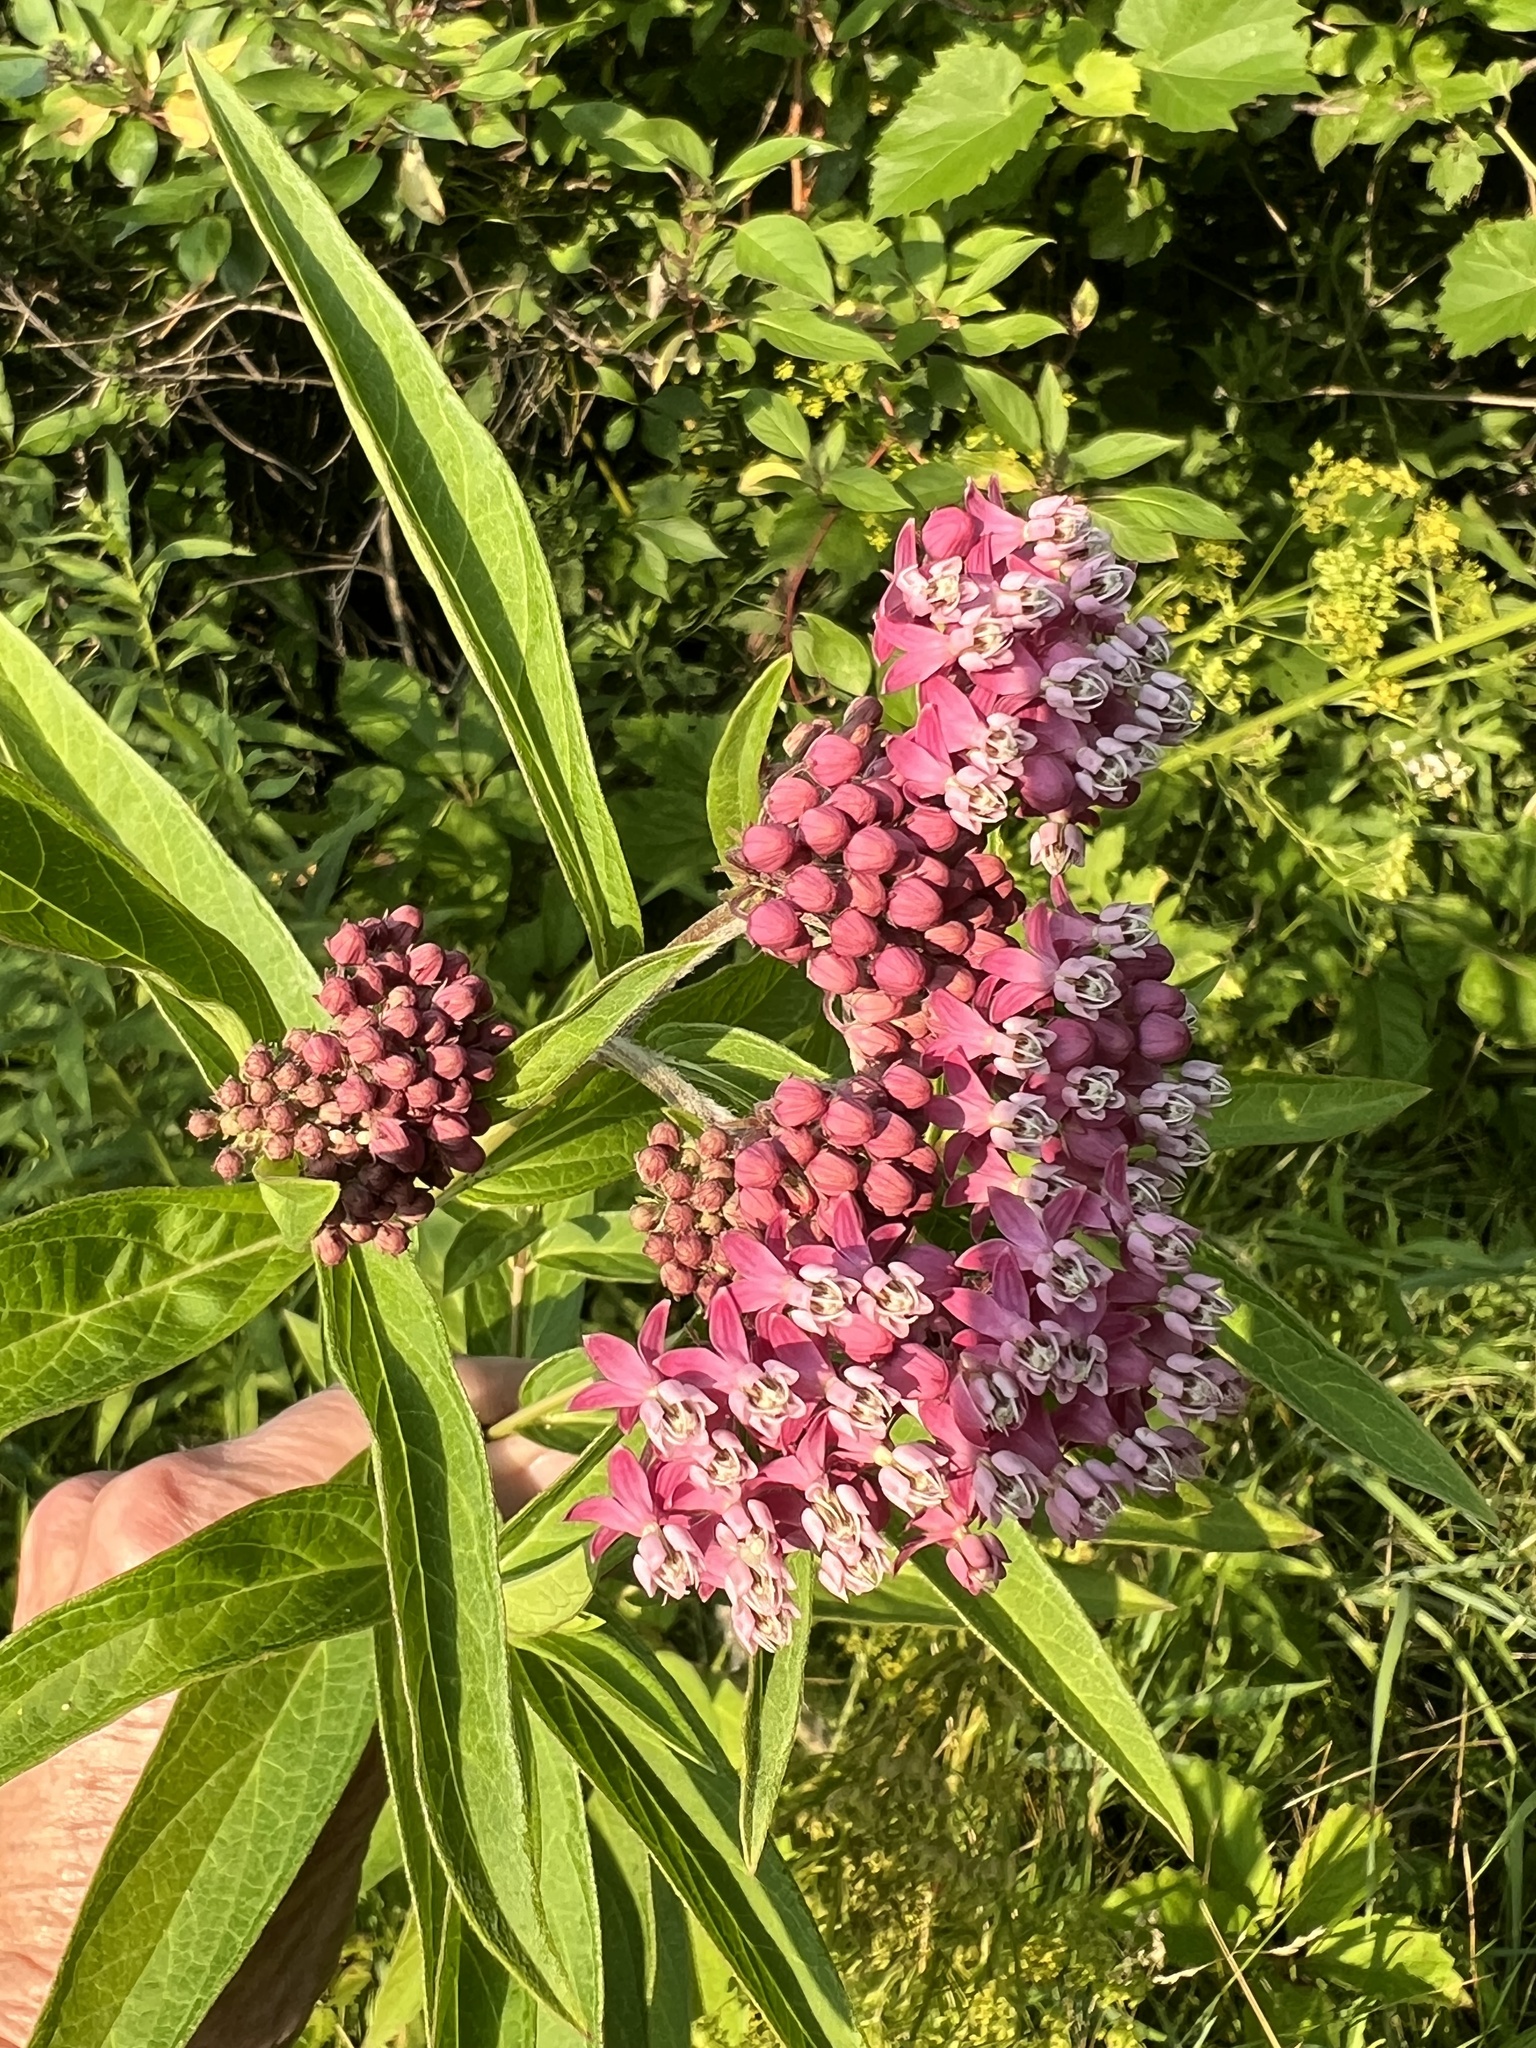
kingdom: Plantae
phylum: Tracheophyta
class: Magnoliopsida
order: Gentianales
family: Apocynaceae
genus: Asclepias
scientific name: Asclepias incarnata
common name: Swamp milkweed
